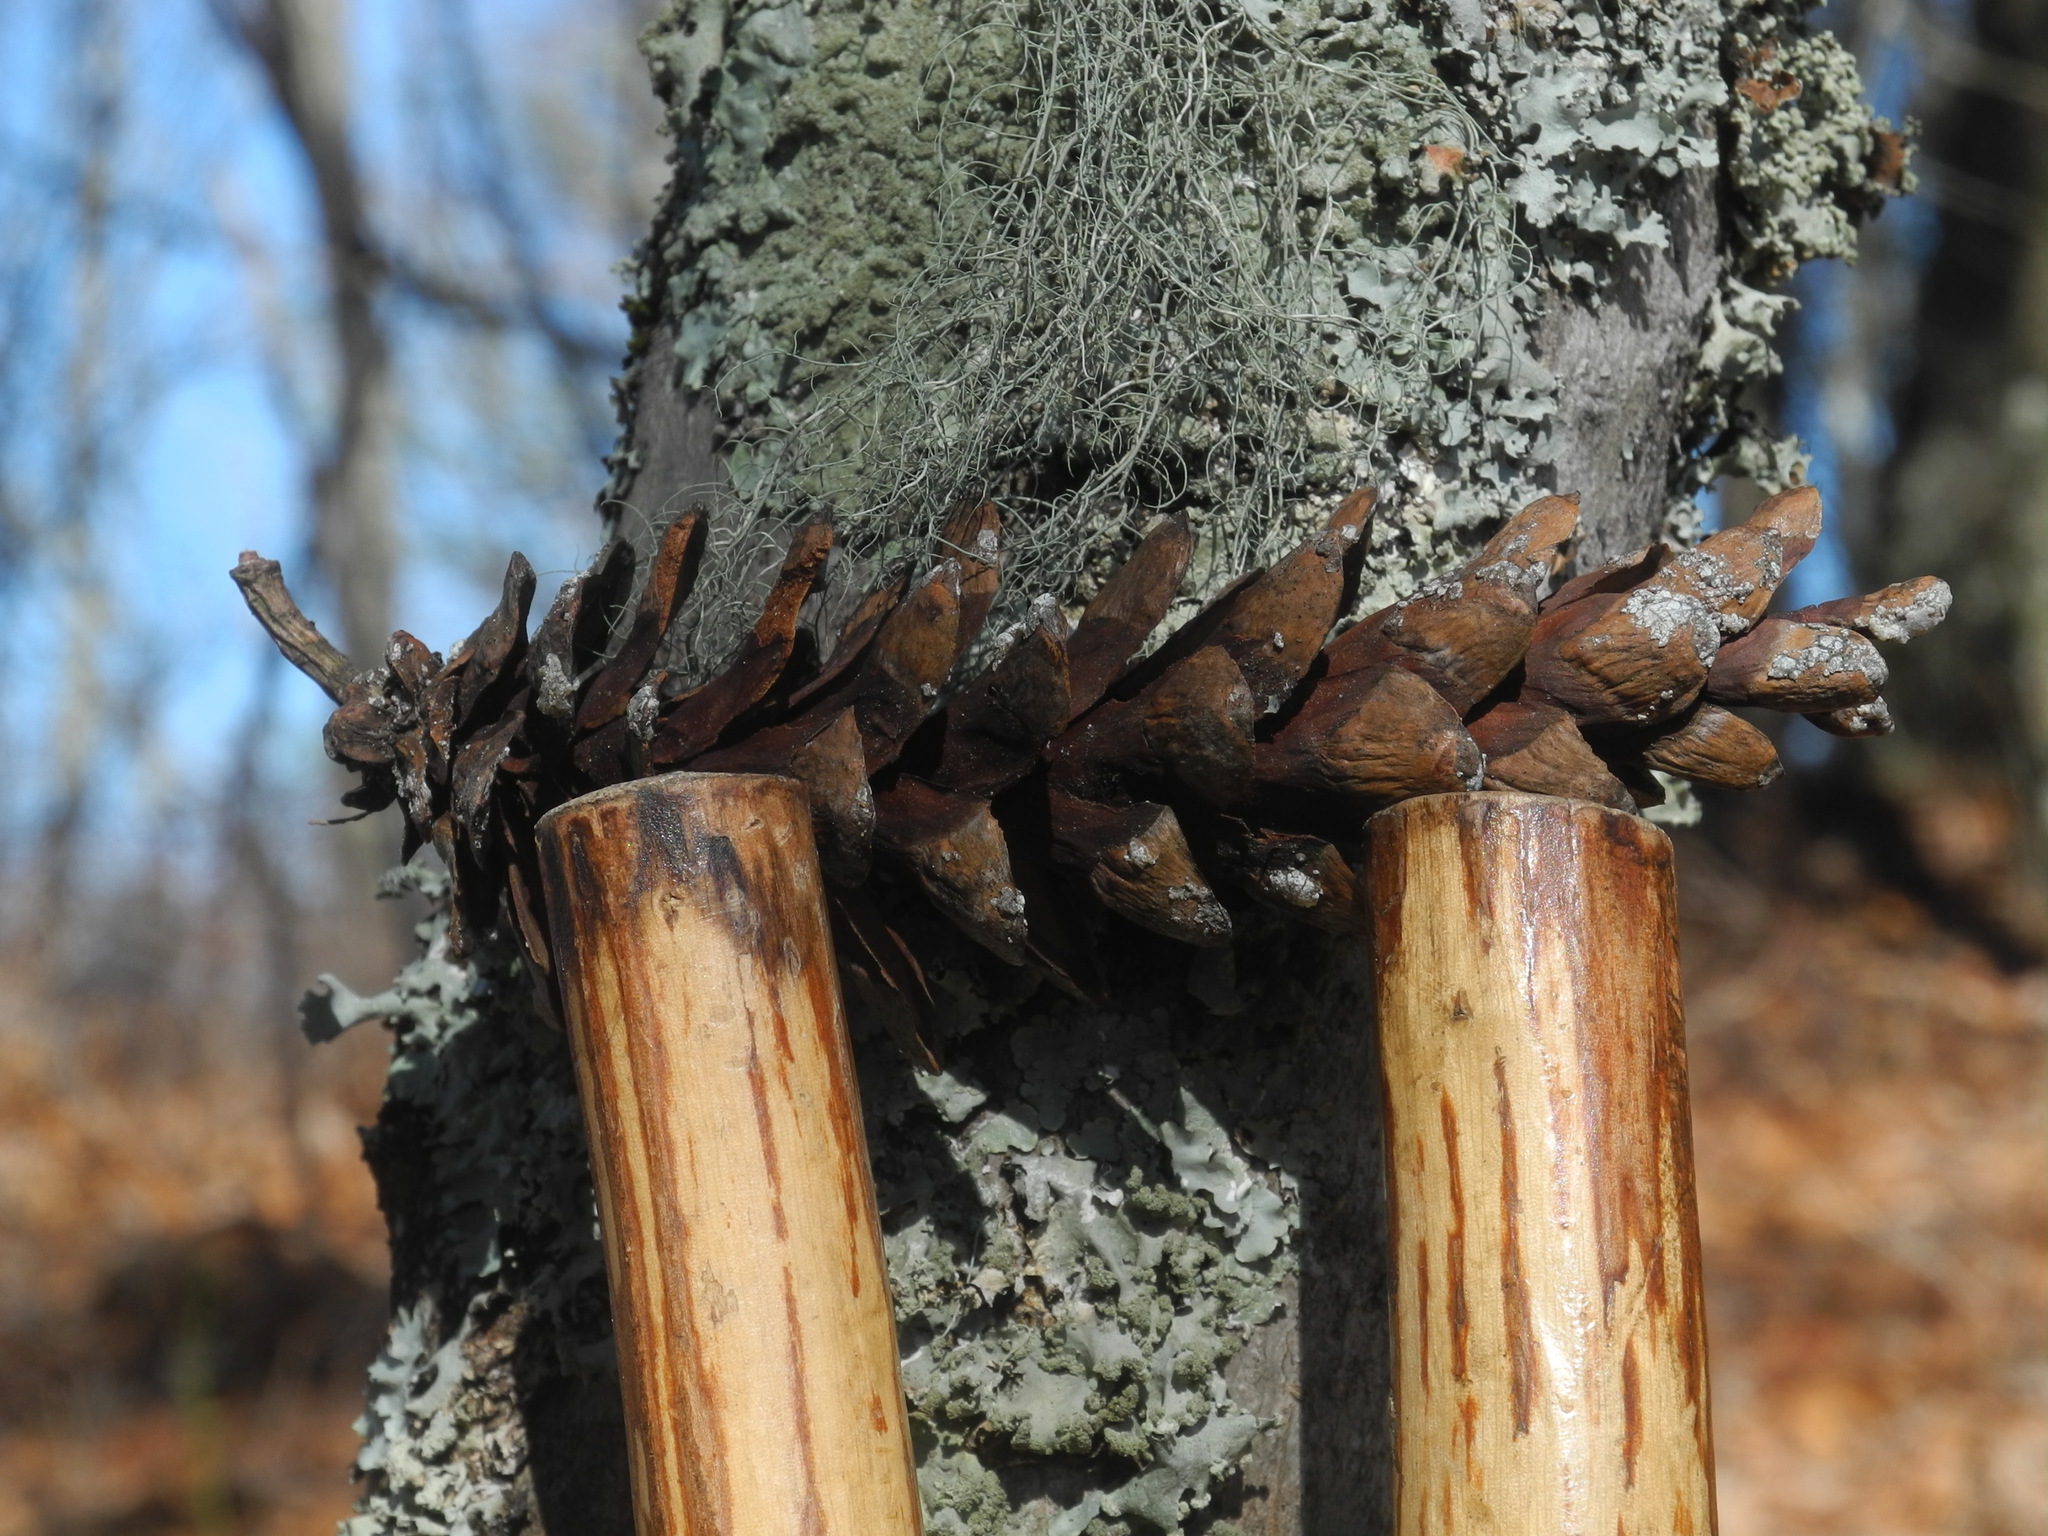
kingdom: Plantae
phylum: Tracheophyta
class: Pinopsida
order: Pinales
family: Pinaceae
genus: Pinus
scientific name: Pinus strobus
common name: Weymouth pine
